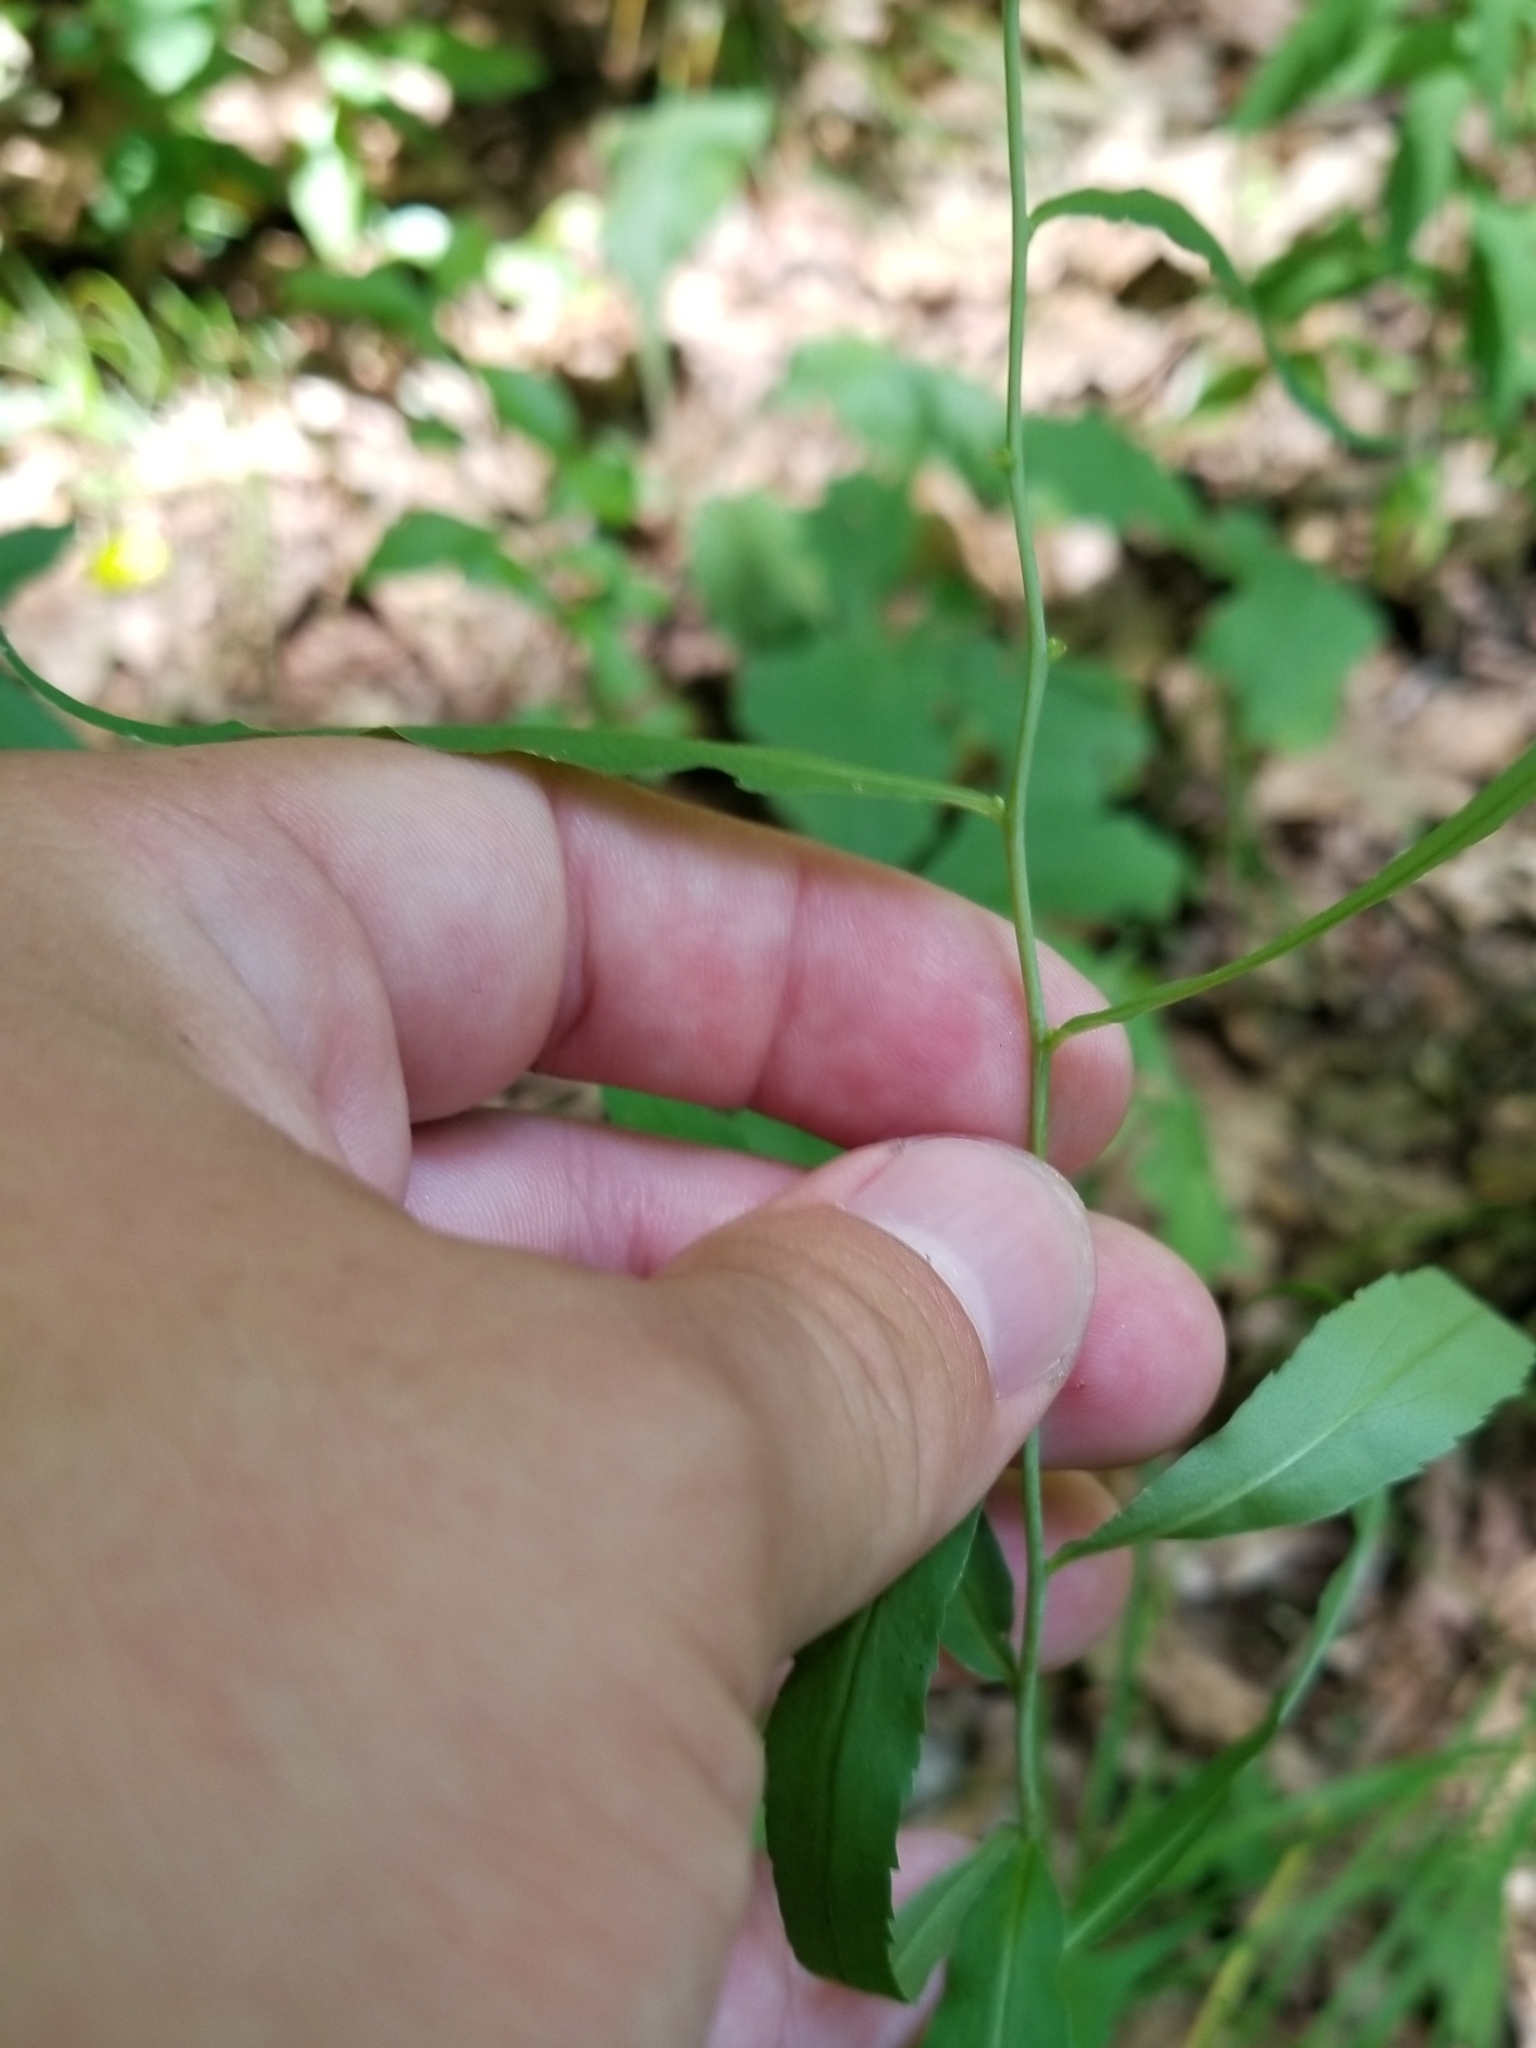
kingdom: Plantae
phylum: Tracheophyta
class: Magnoliopsida
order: Asterales
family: Asteraceae
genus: Solidago
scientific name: Solidago caesia
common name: Woodland goldenrod
